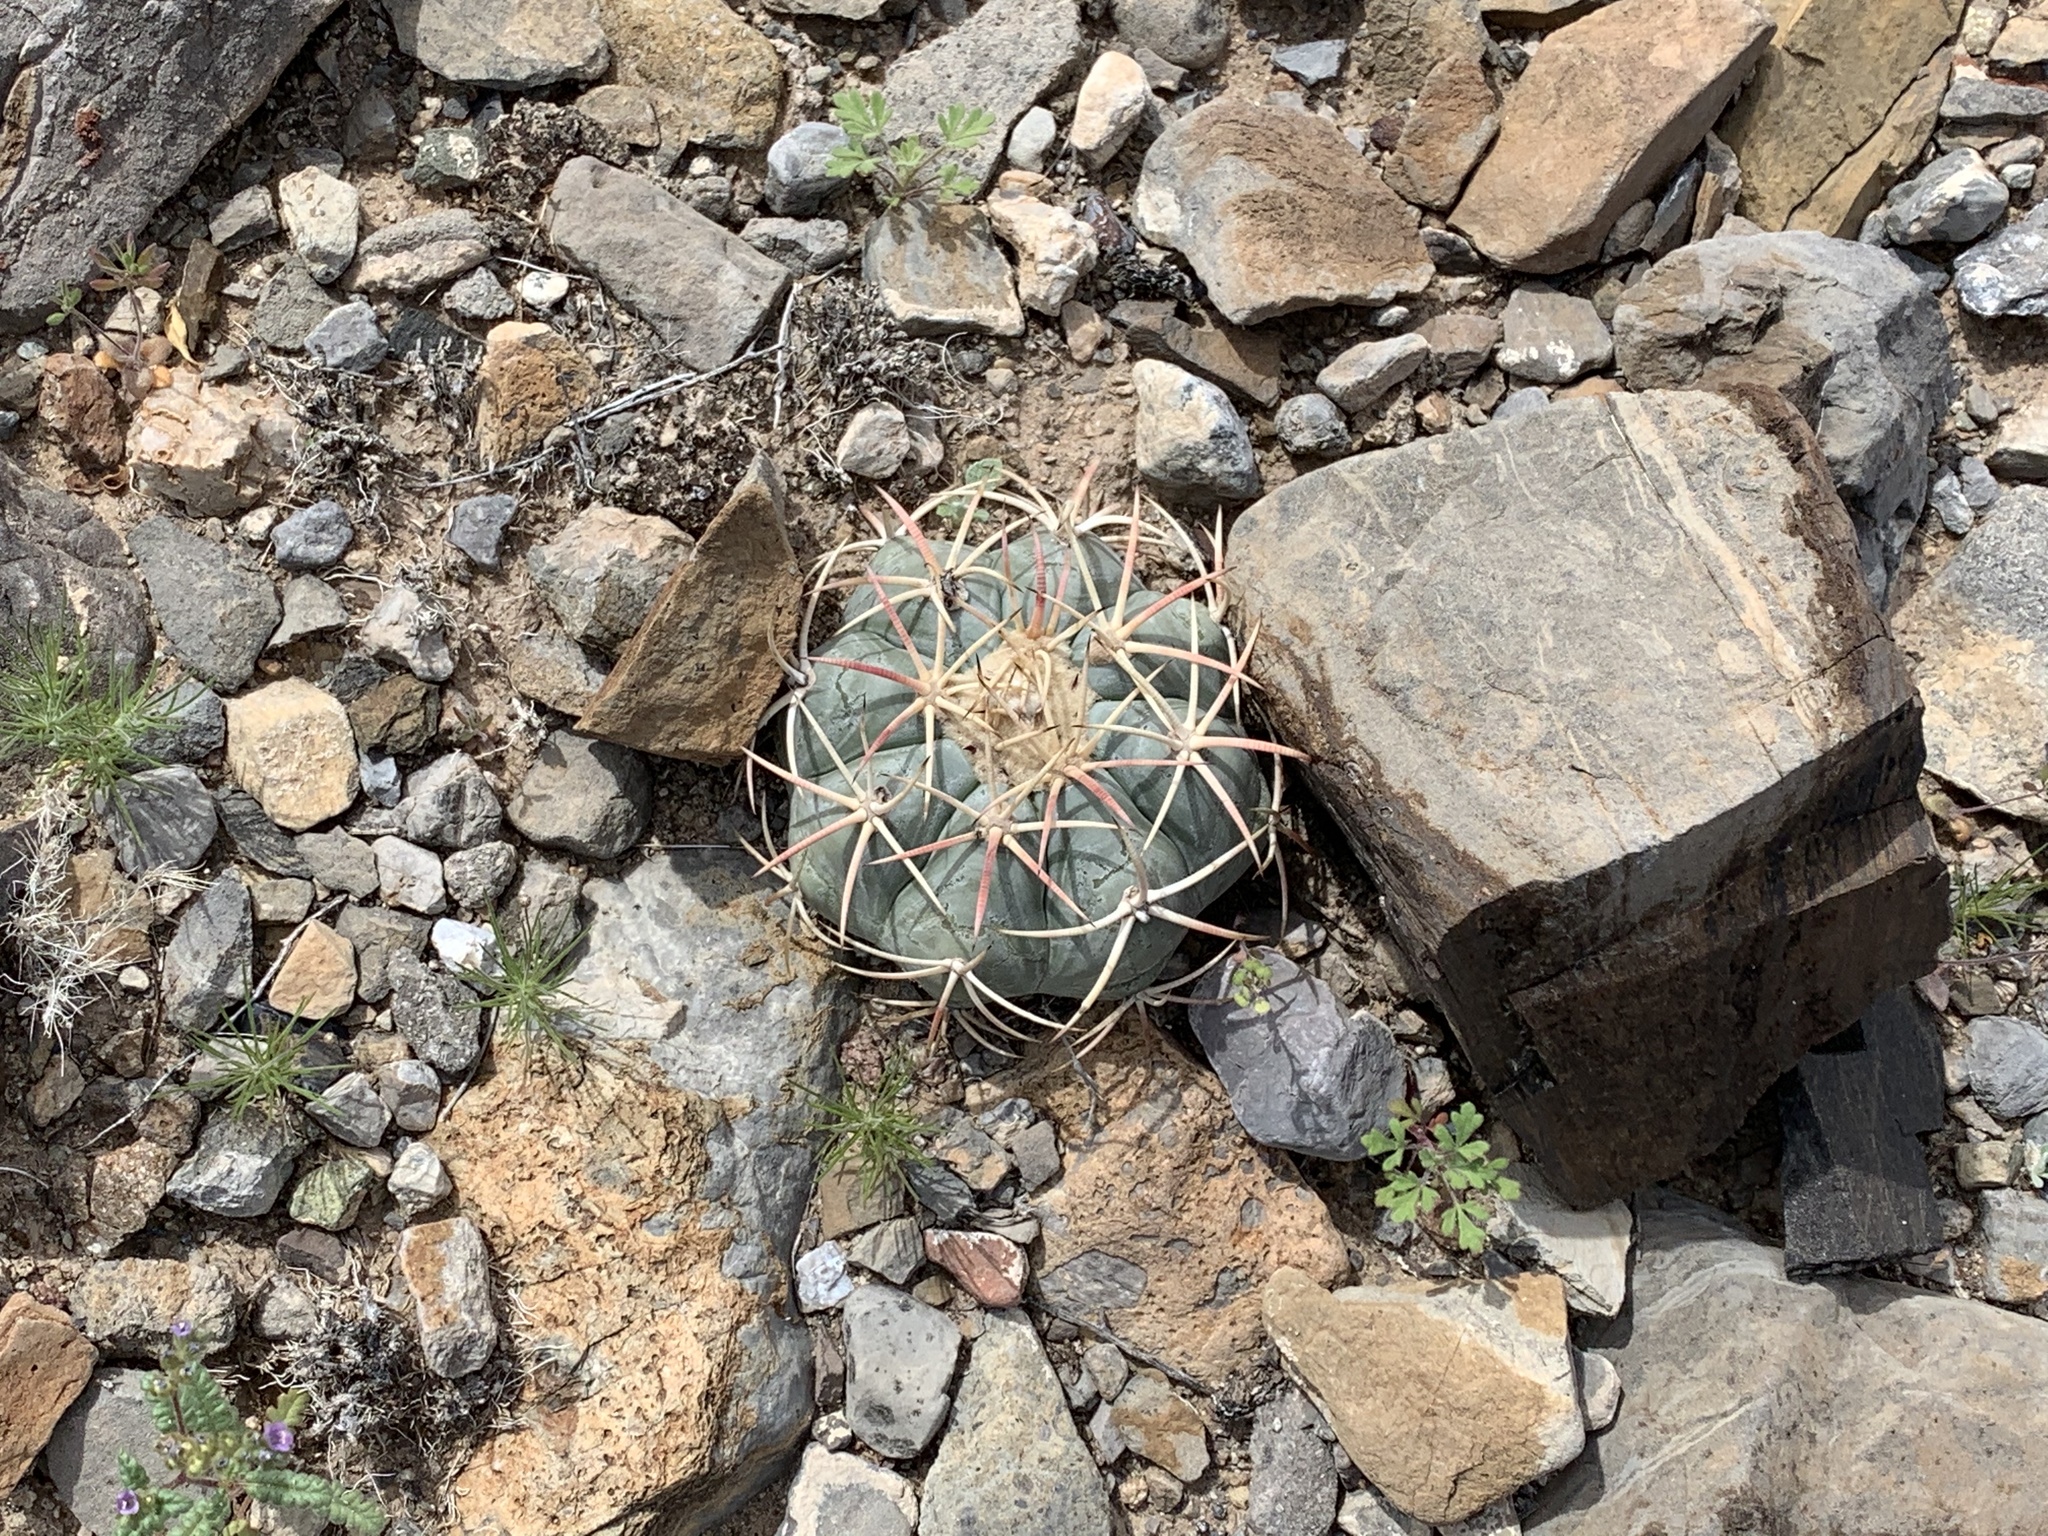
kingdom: Plantae
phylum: Tracheophyta
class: Magnoliopsida
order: Caryophyllales
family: Cactaceae
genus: Echinocactus
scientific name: Echinocactus horizonthalonius
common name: Devilshead
